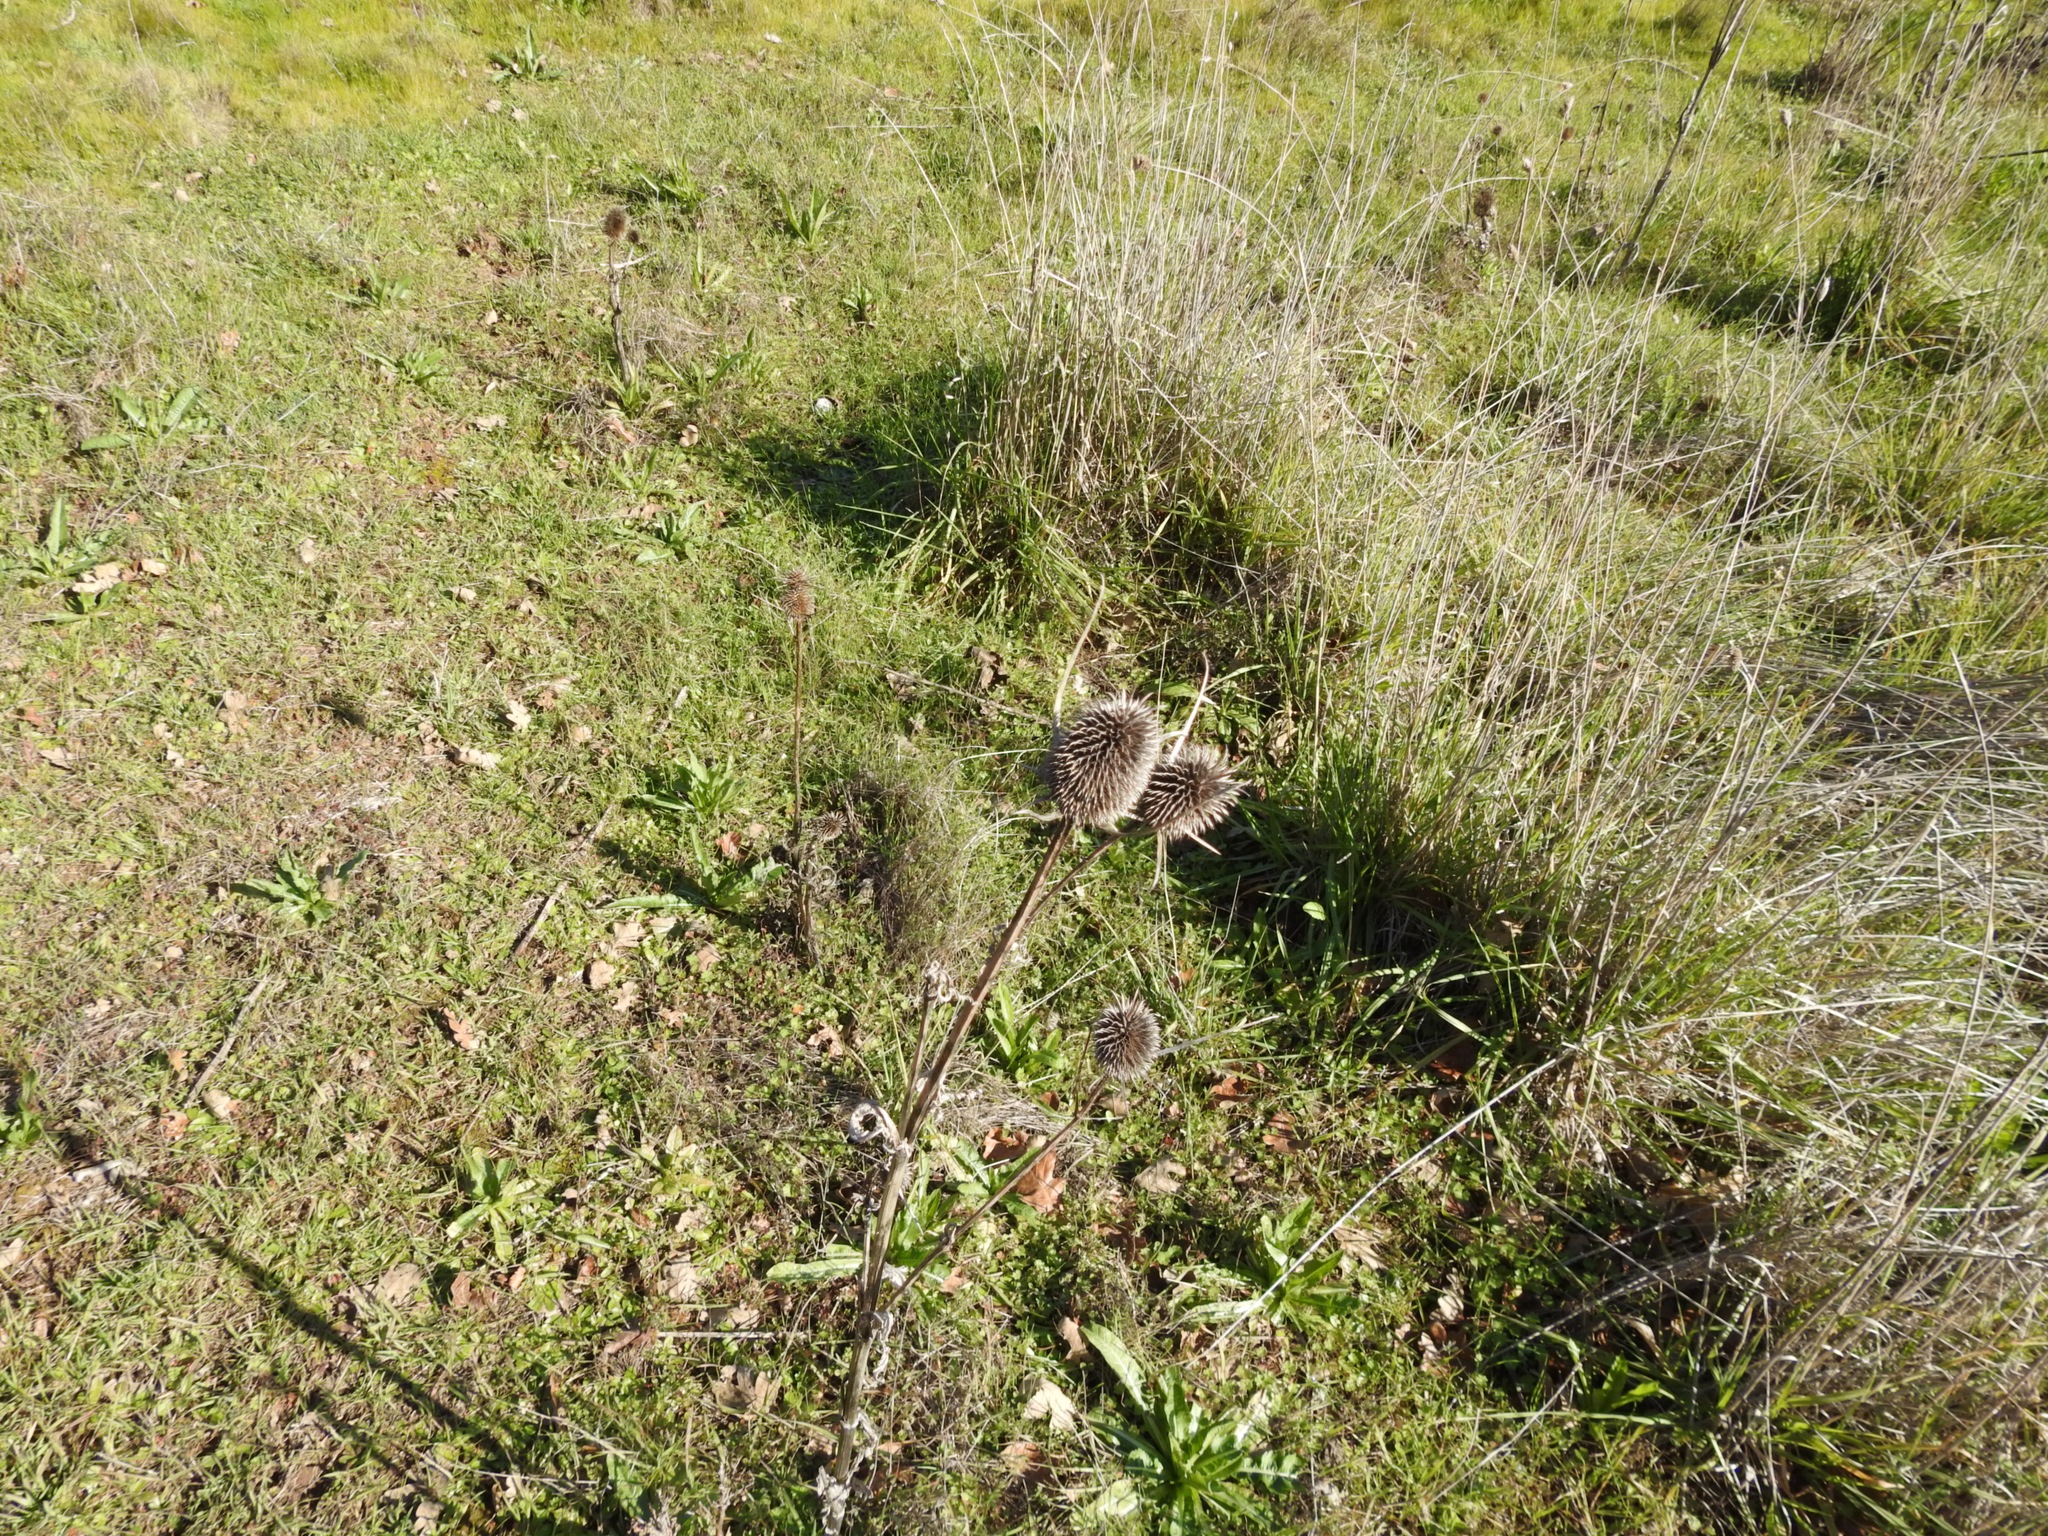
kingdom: Plantae
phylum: Tracheophyta
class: Magnoliopsida
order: Dipsacales
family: Caprifoliaceae
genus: Dipsacus
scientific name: Dipsacus sativus
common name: Fuller's teasel
